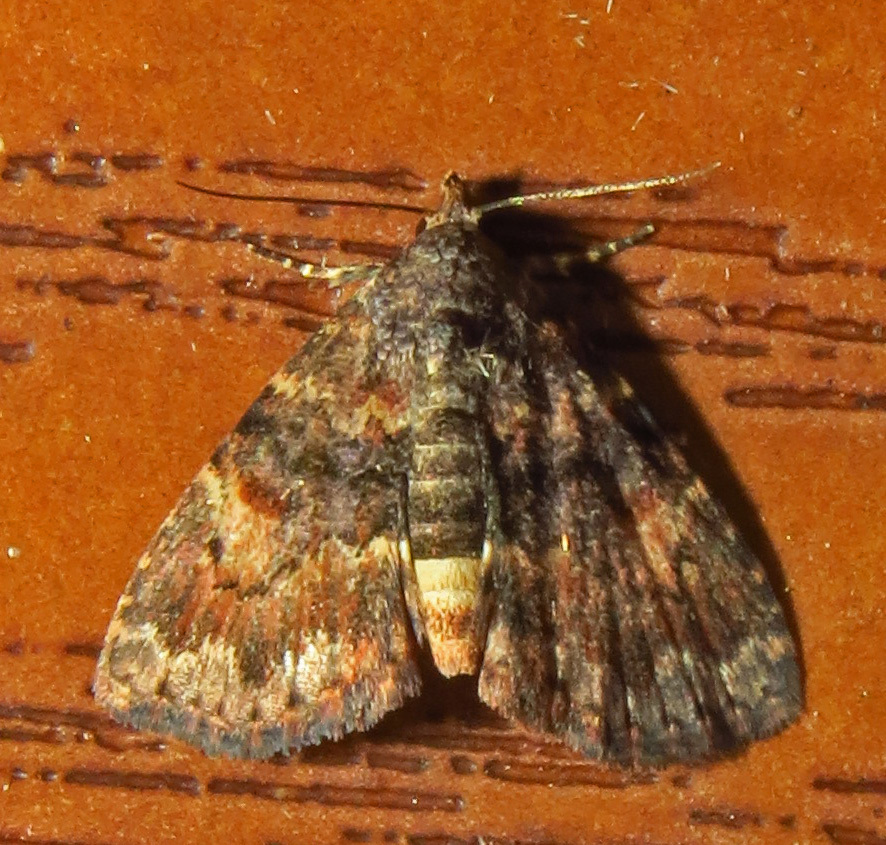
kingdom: Animalia
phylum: Arthropoda
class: Insecta
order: Lepidoptera
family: Erebidae
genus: Metalectra
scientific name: Metalectra richardsi
